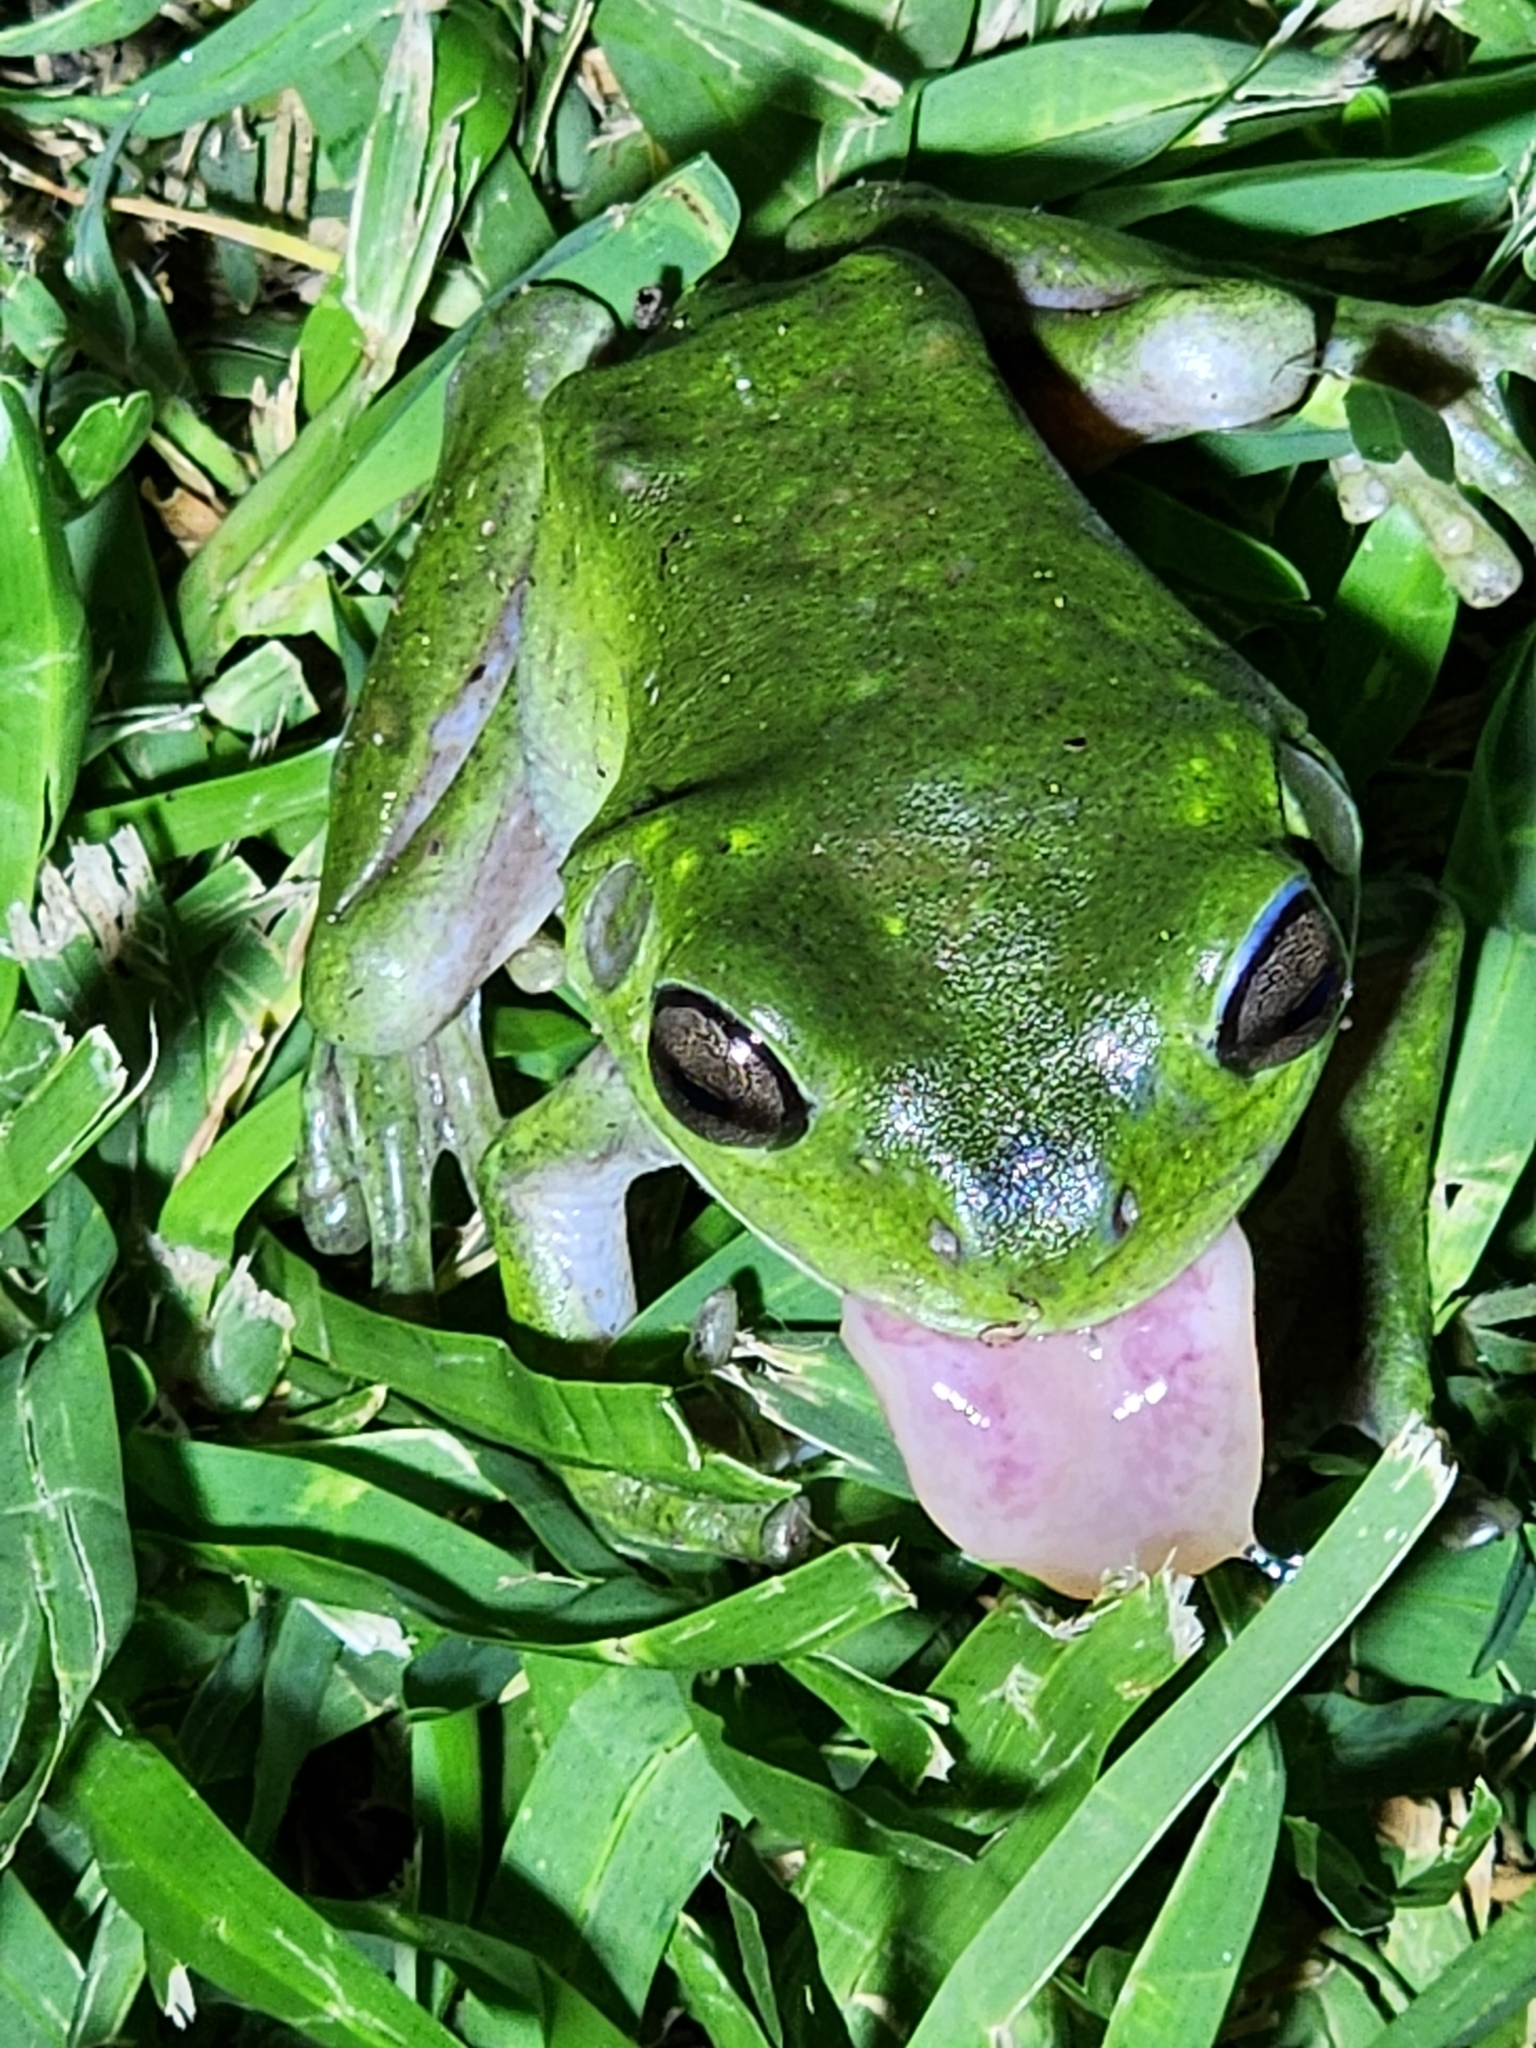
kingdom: Animalia
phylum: Chordata
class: Amphibia
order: Anura
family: Pelodryadidae
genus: Ranoidea
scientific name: Ranoidea caerulea
